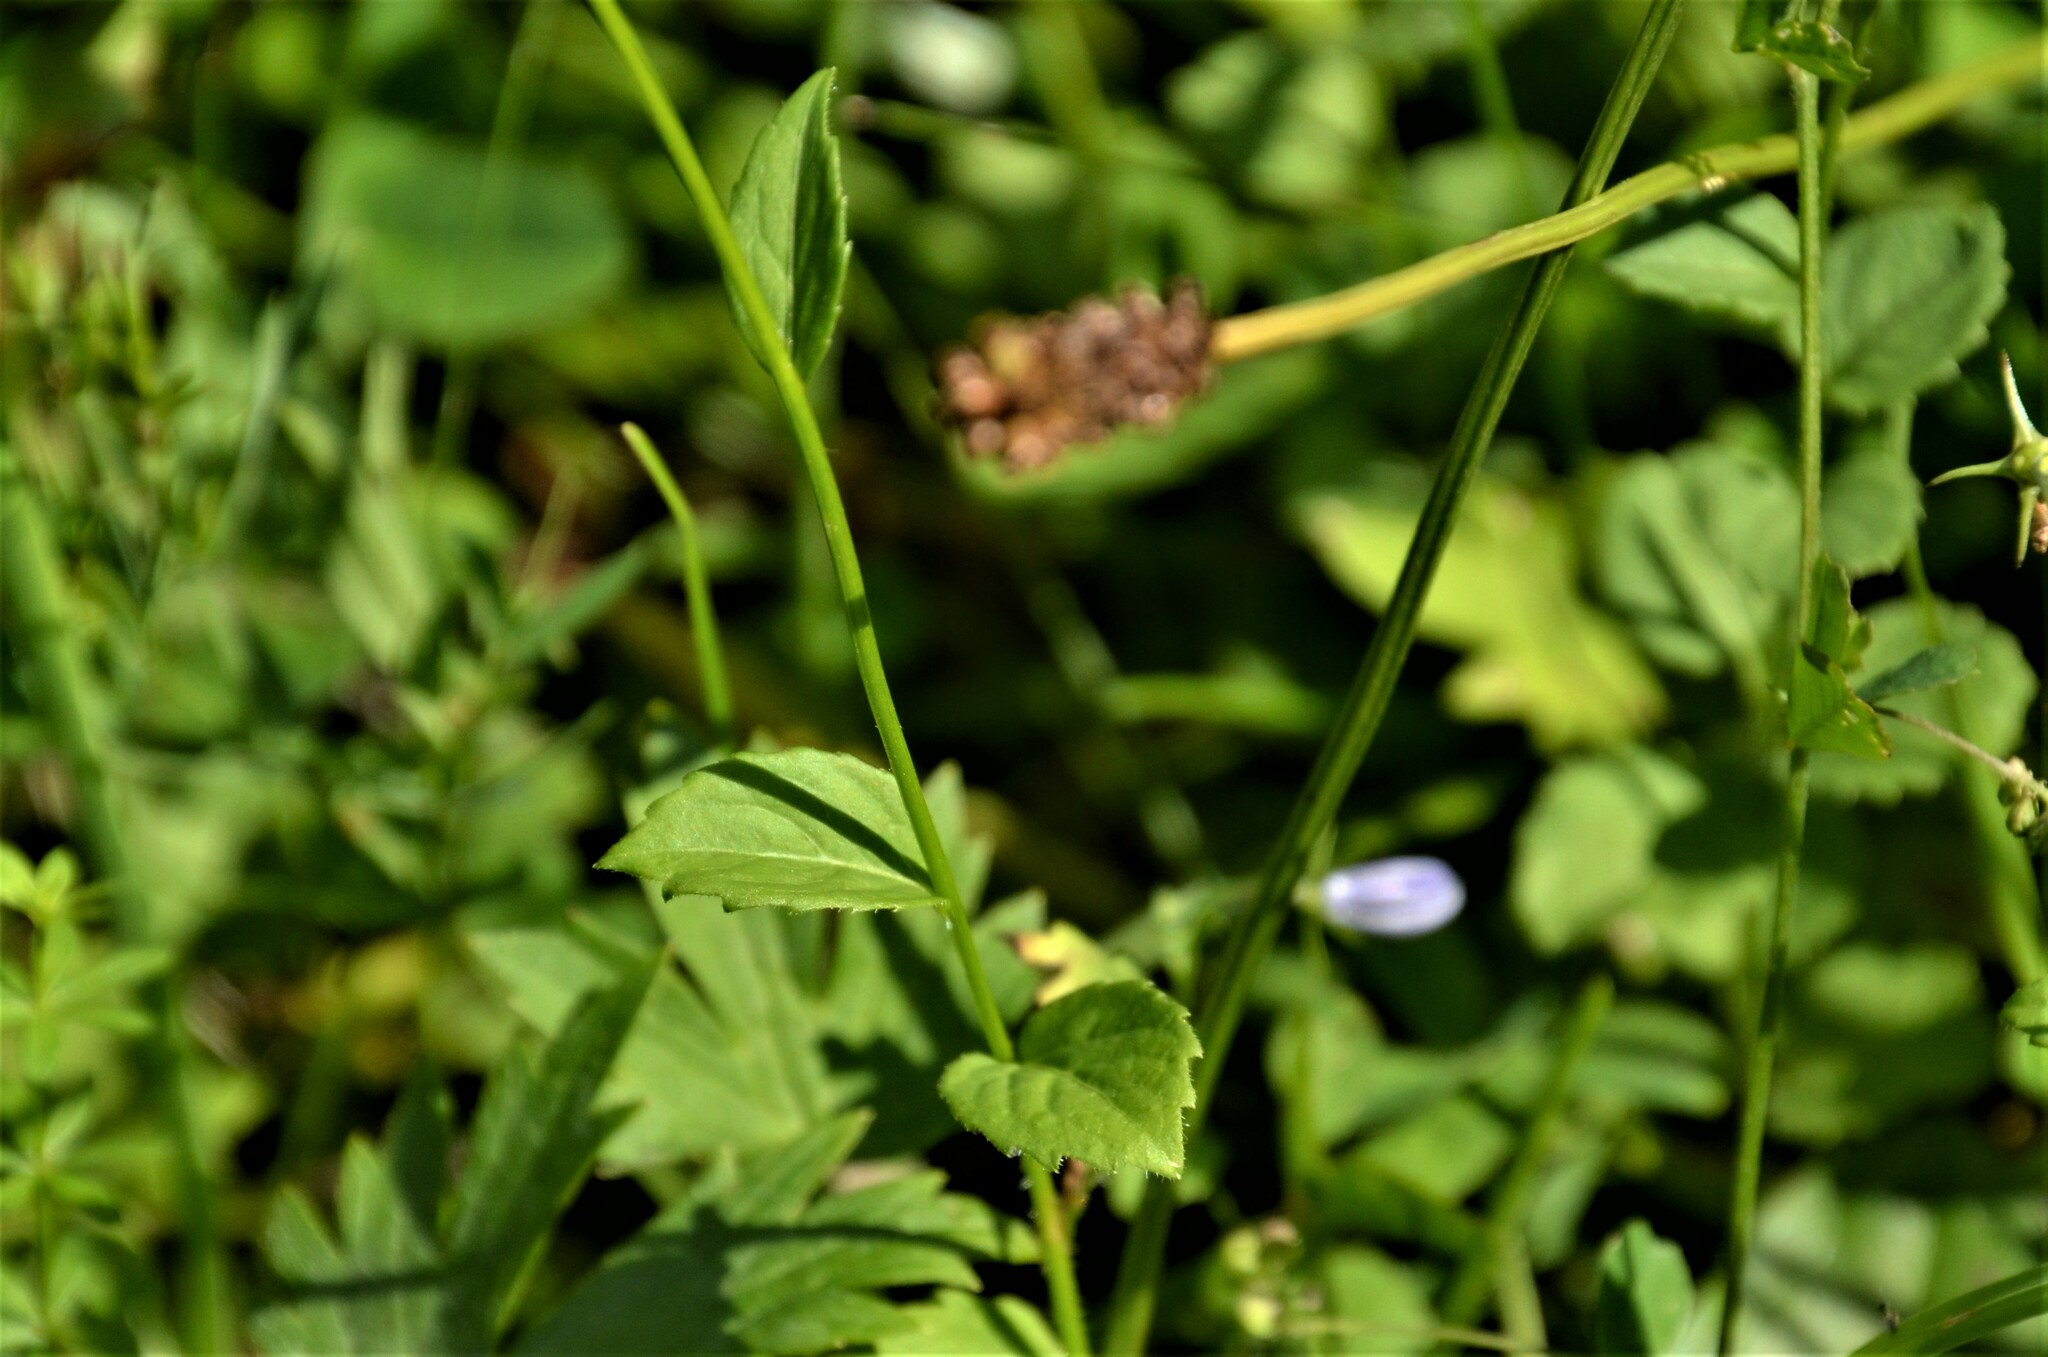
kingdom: Plantae
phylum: Tracheophyta
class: Magnoliopsida
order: Asterales
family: Campanulaceae
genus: Campanula
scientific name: Campanula rhomboidalis
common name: Broad-leaved harebell
